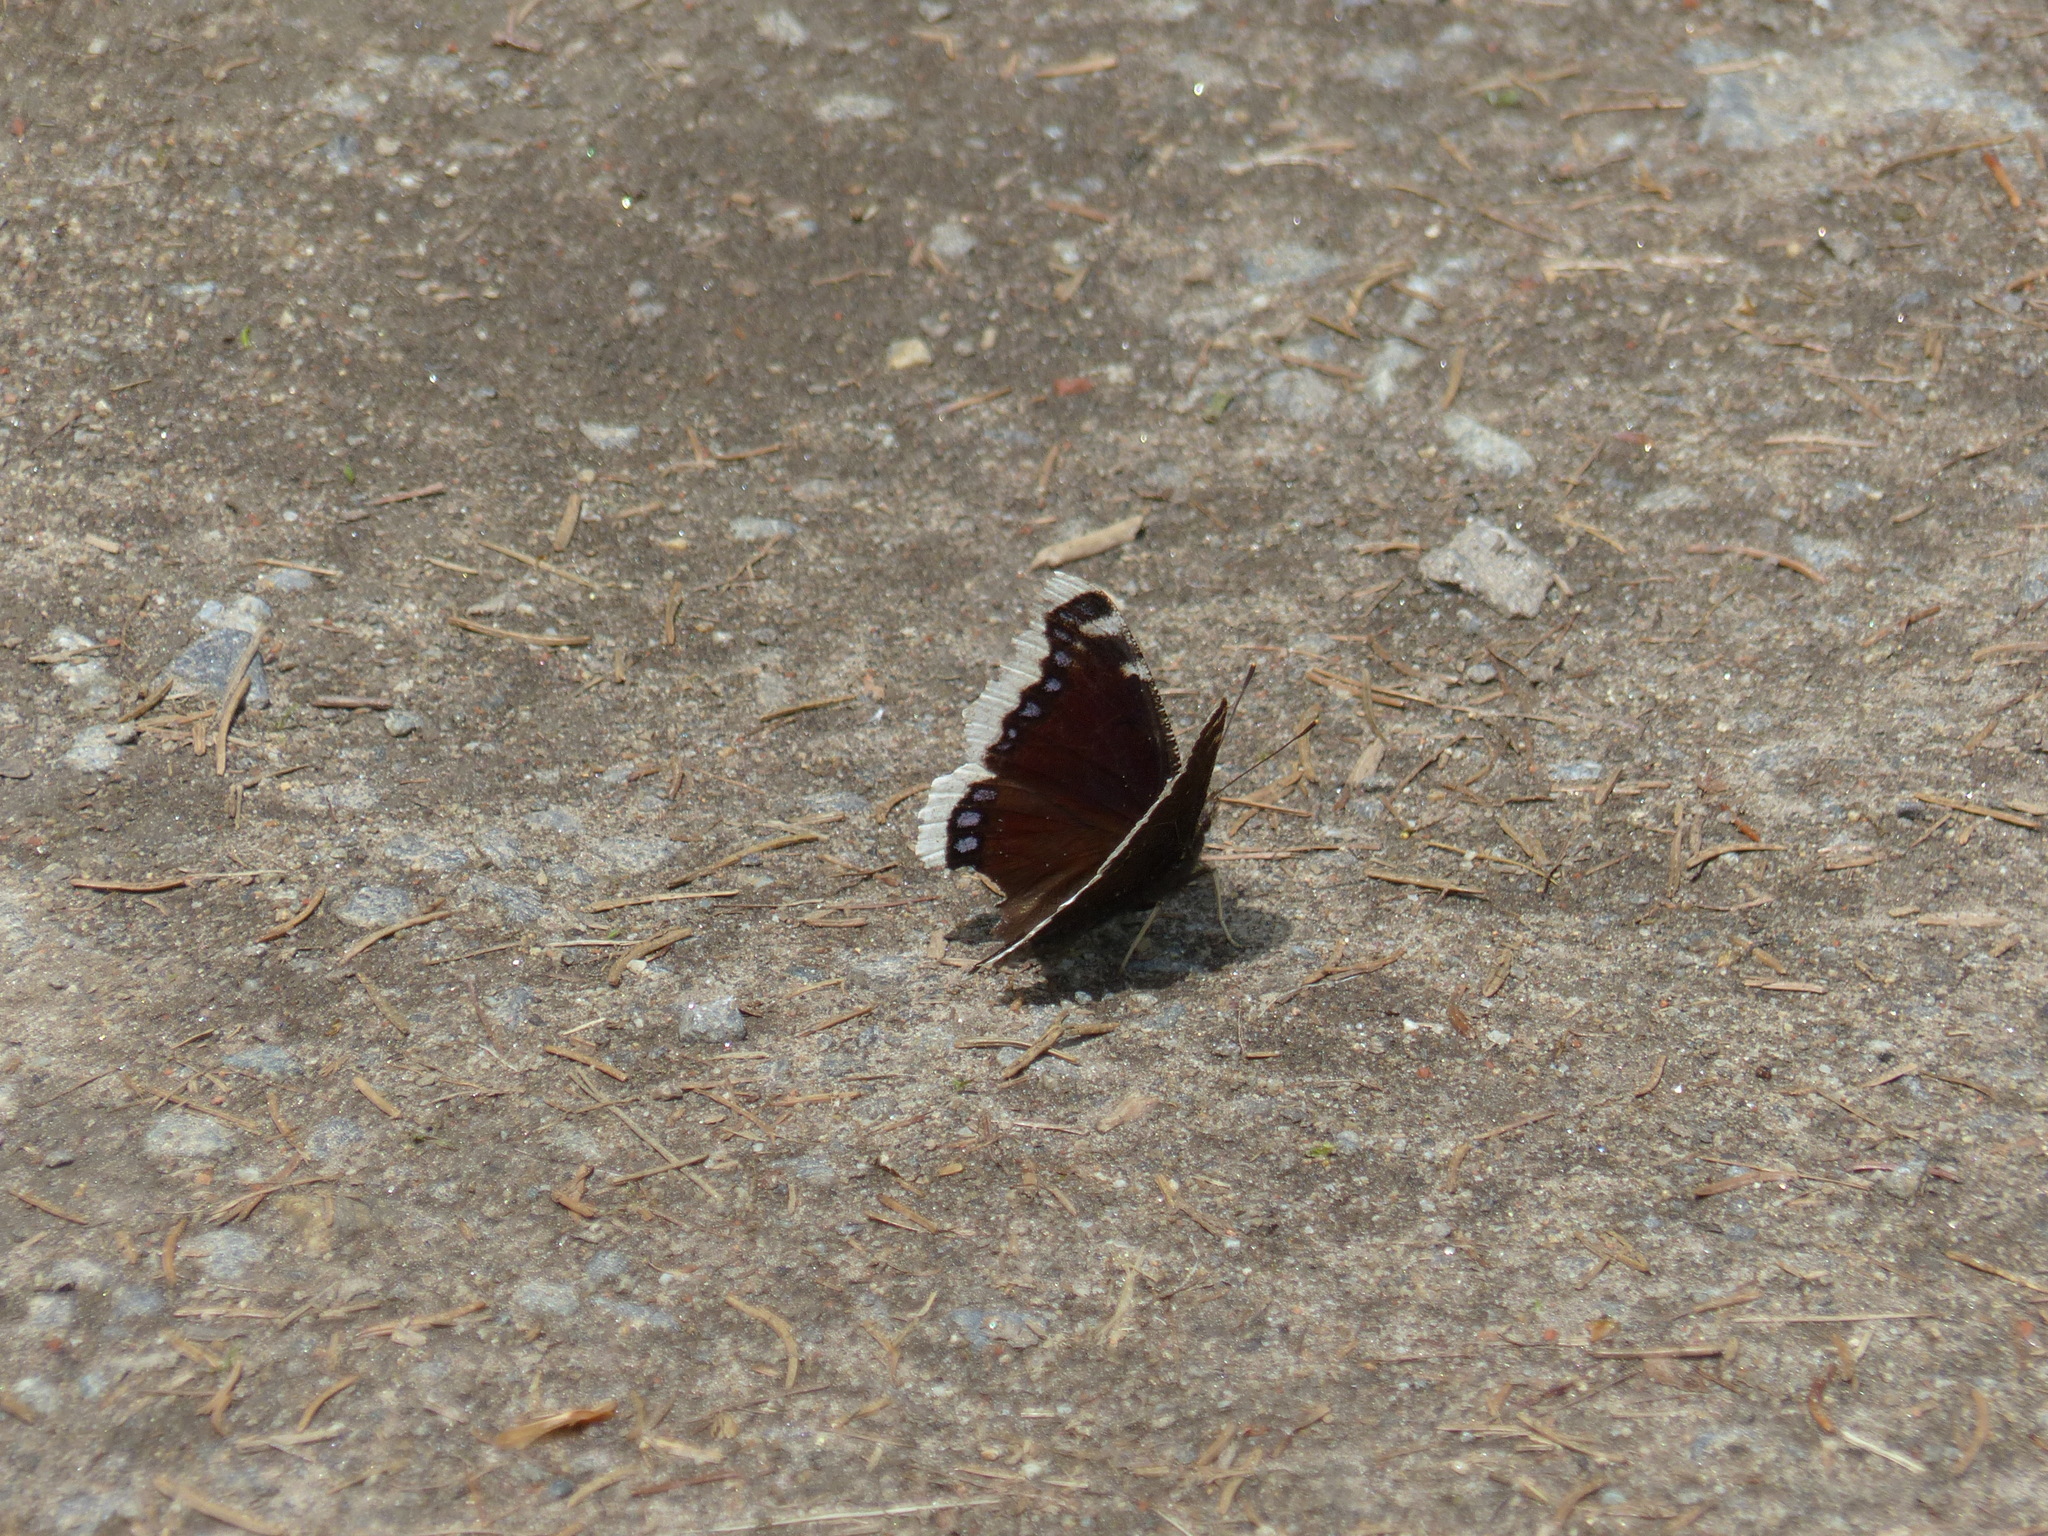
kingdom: Animalia
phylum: Arthropoda
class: Insecta
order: Lepidoptera
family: Nymphalidae
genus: Nymphalis
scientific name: Nymphalis antiopa
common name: Camberwell beauty
